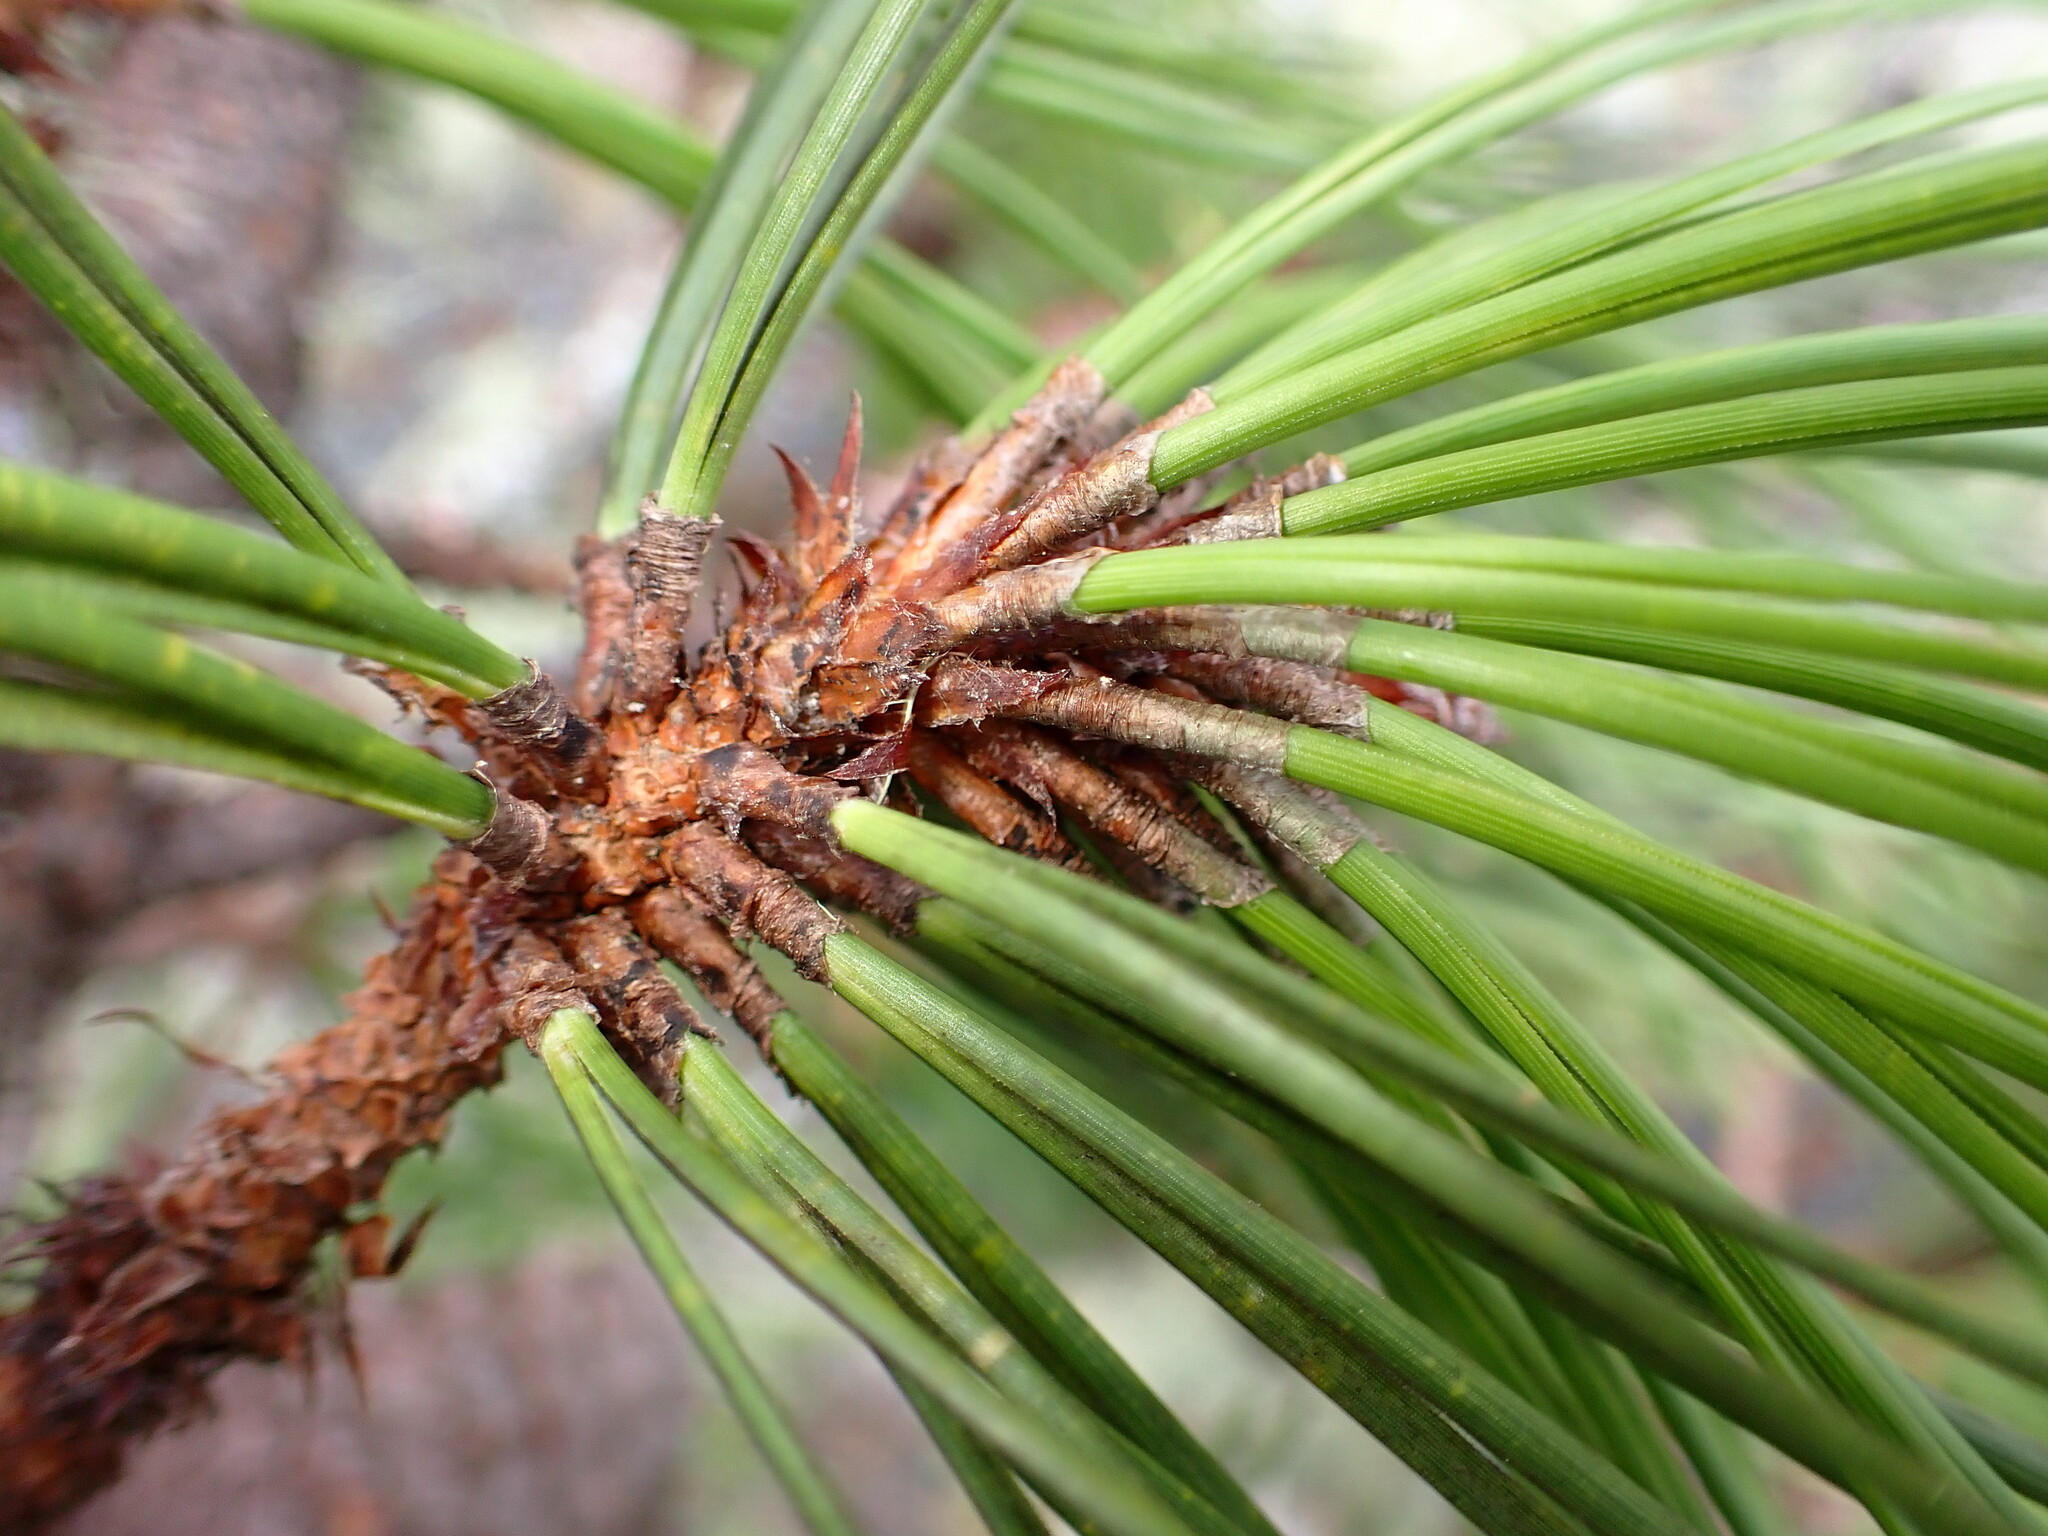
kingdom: Plantae
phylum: Tracheophyta
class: Pinopsida
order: Pinales
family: Pinaceae
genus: Pinus
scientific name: Pinus muricata
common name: Bishop pine
